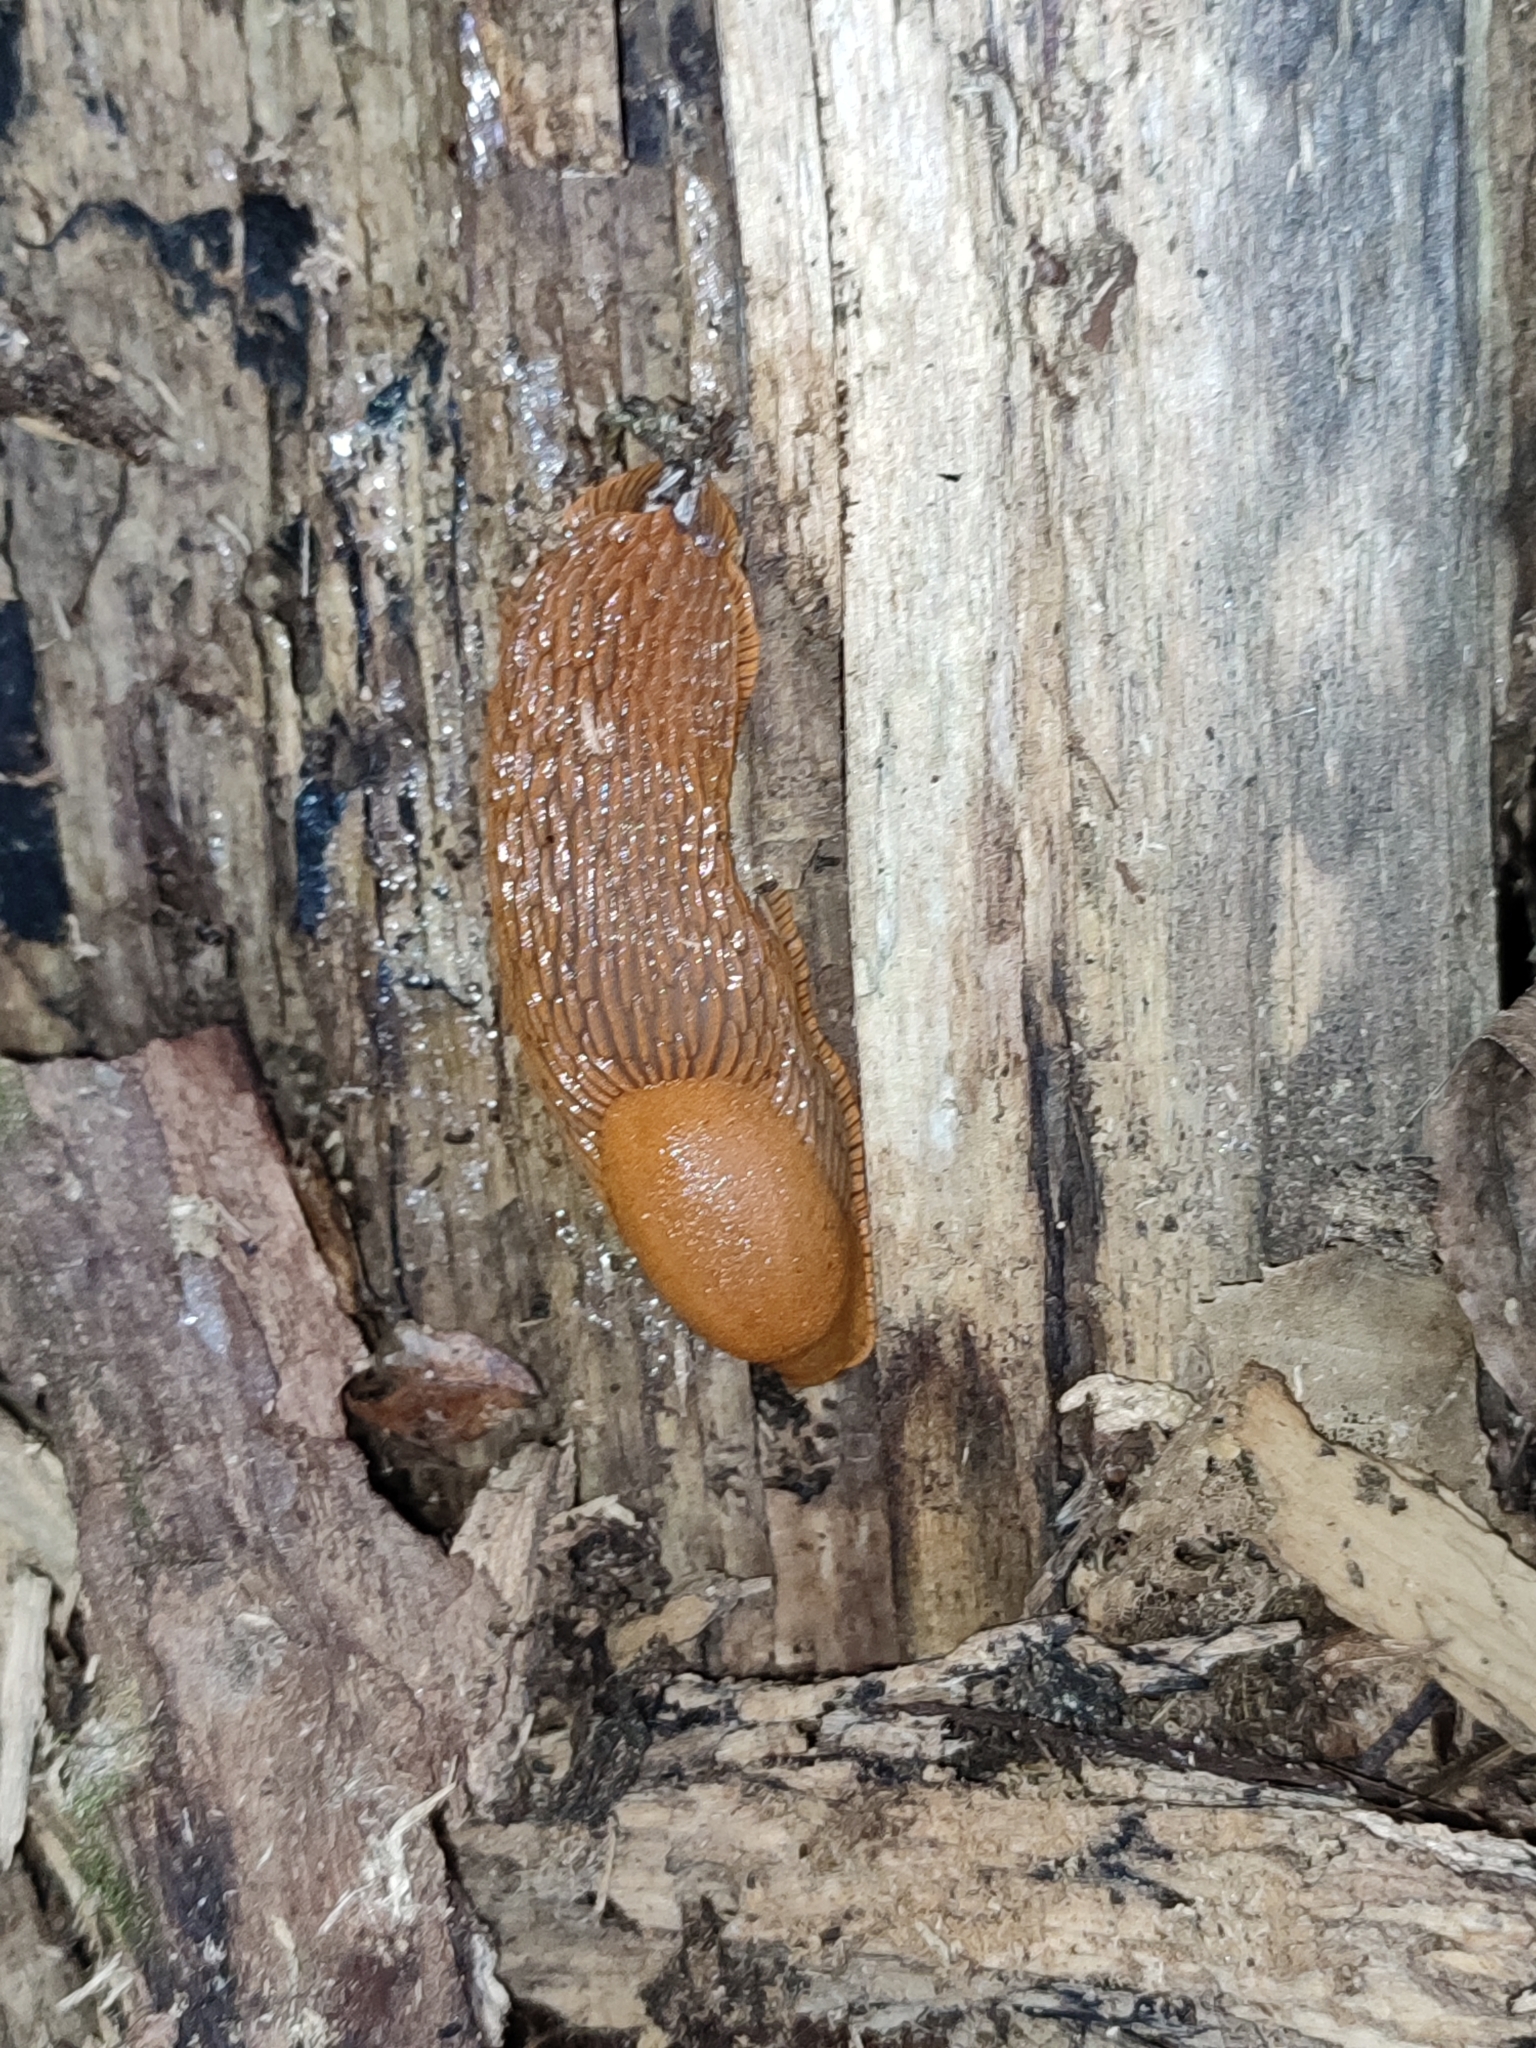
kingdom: Animalia
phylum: Mollusca
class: Gastropoda
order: Stylommatophora
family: Arionidae
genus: Arion
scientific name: Arion vulgaris
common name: Lusitanian slug
